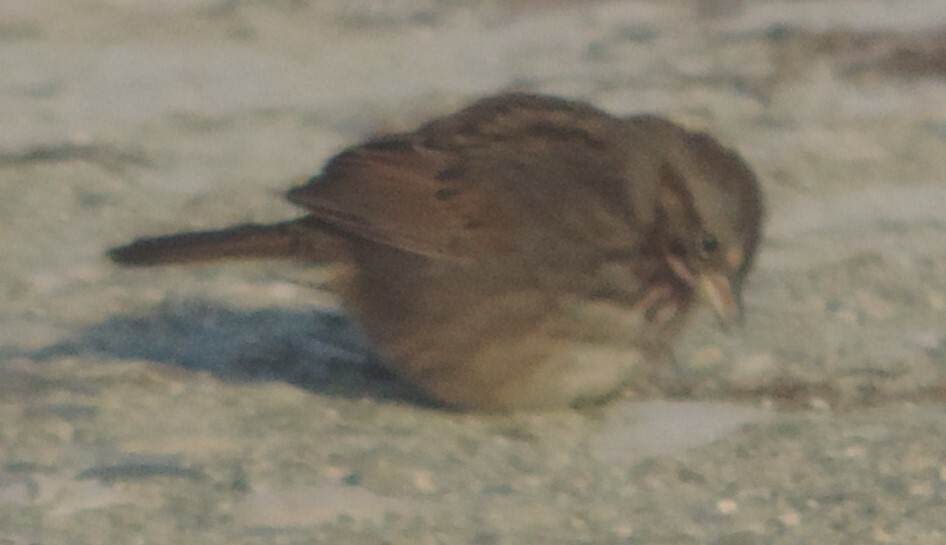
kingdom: Animalia
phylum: Chordata
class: Aves
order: Passeriformes
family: Passerellidae
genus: Melospiza
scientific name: Melospiza melodia
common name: Song sparrow
